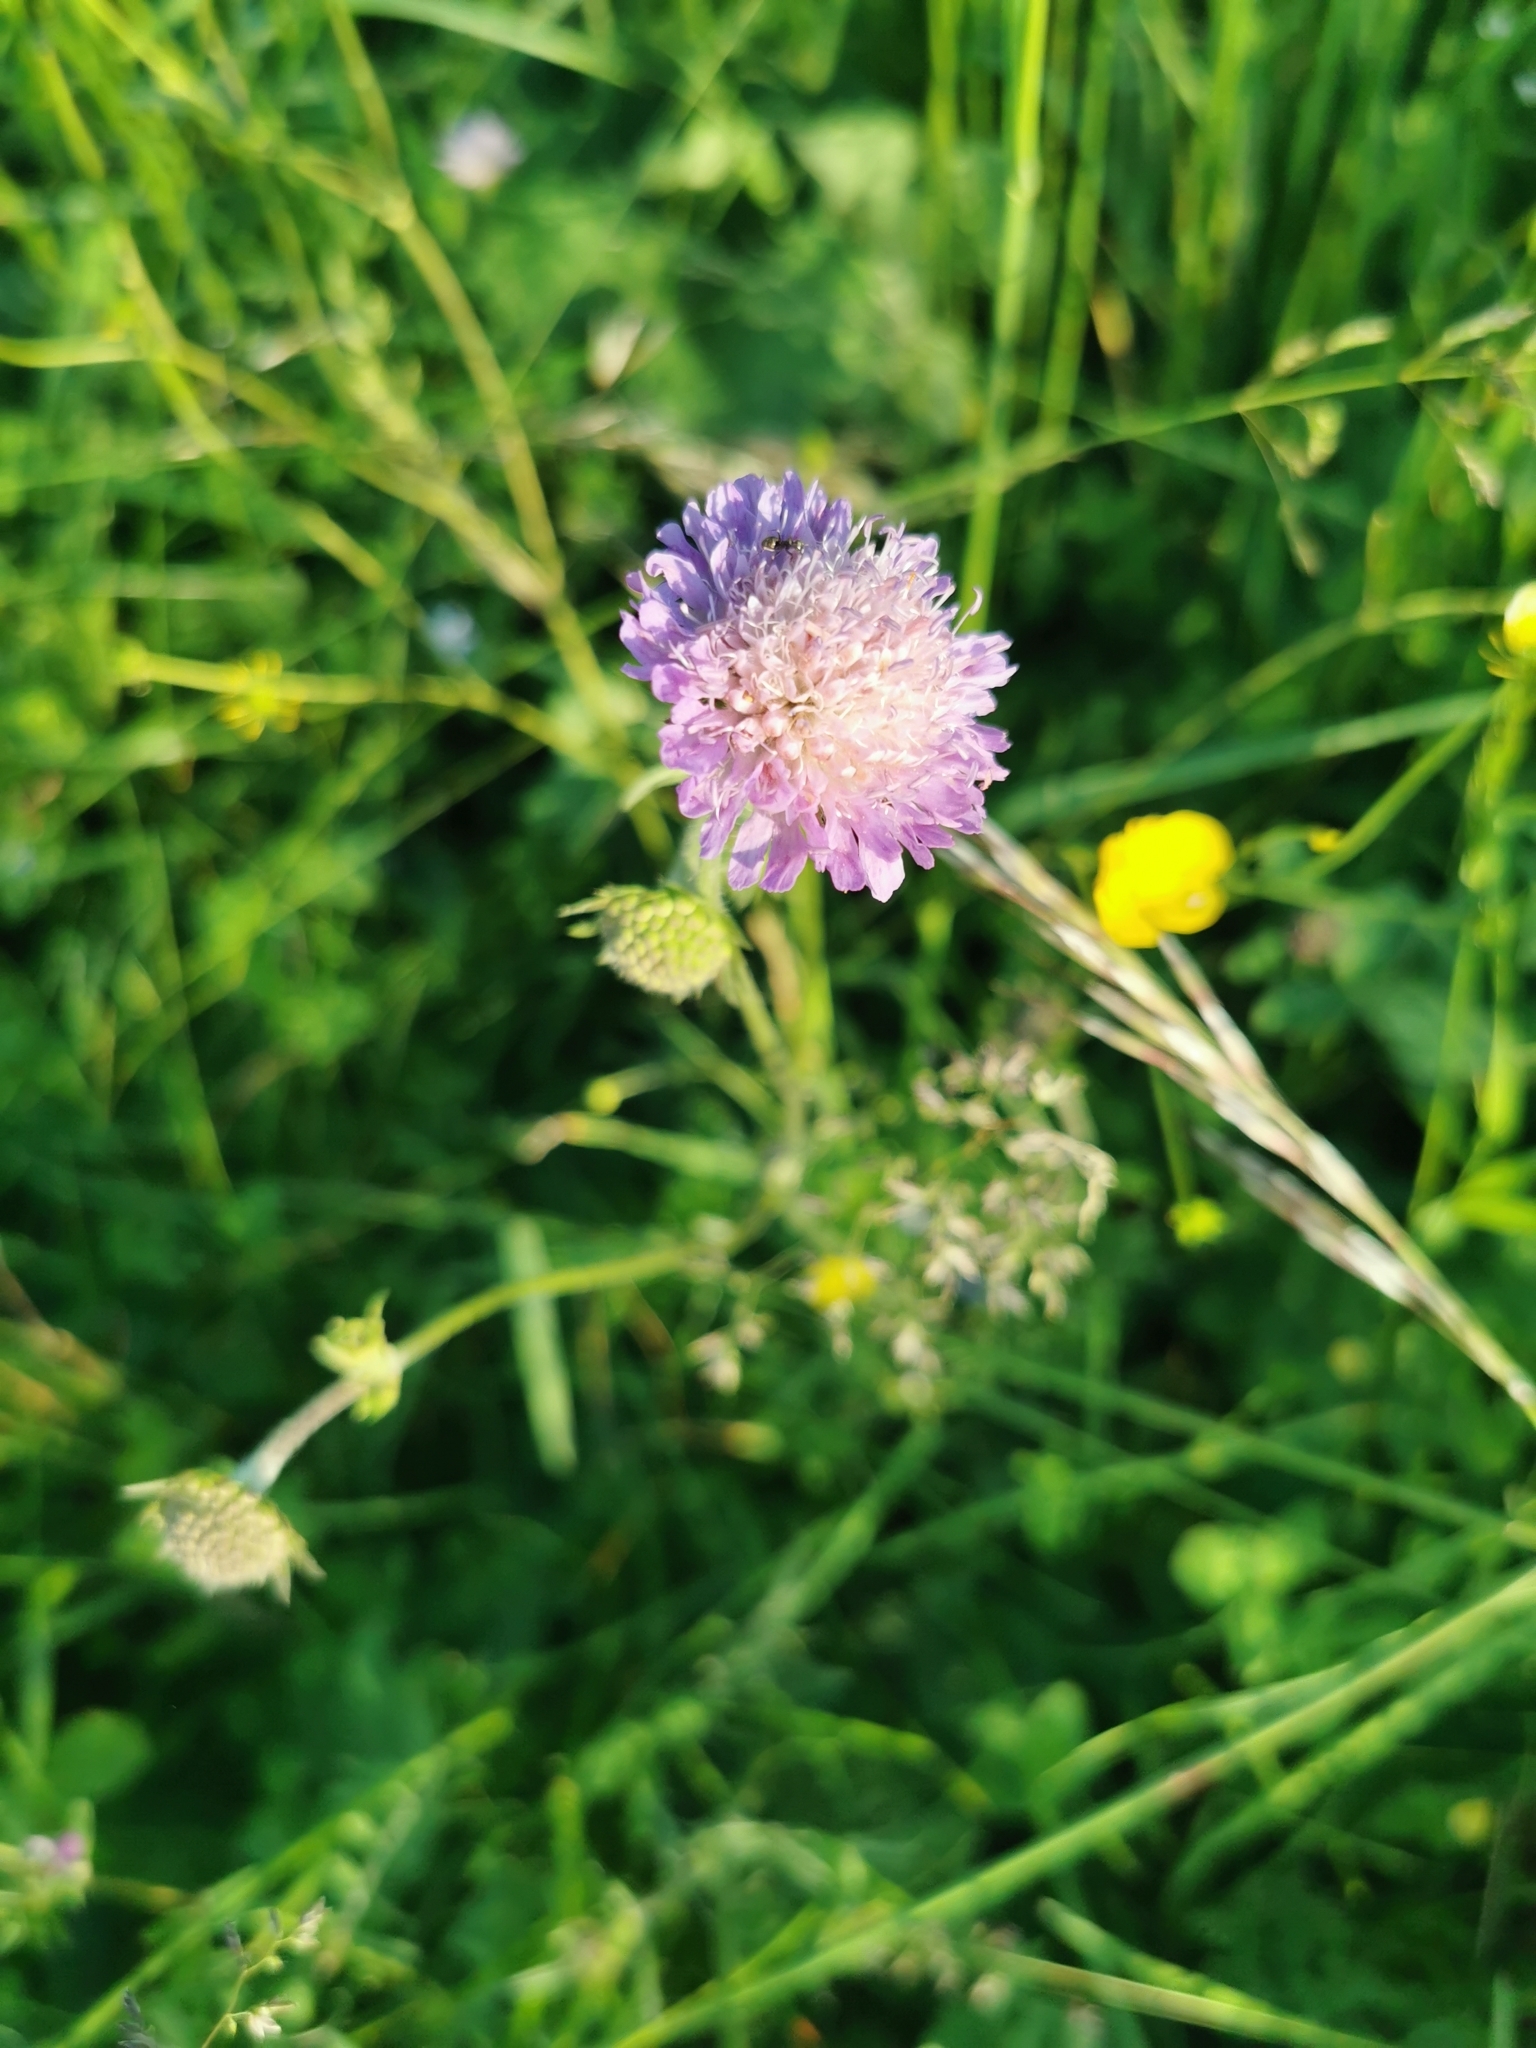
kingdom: Plantae
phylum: Tracheophyta
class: Magnoliopsida
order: Dipsacales
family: Caprifoliaceae
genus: Knautia
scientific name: Knautia arvensis
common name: Field scabiosa
